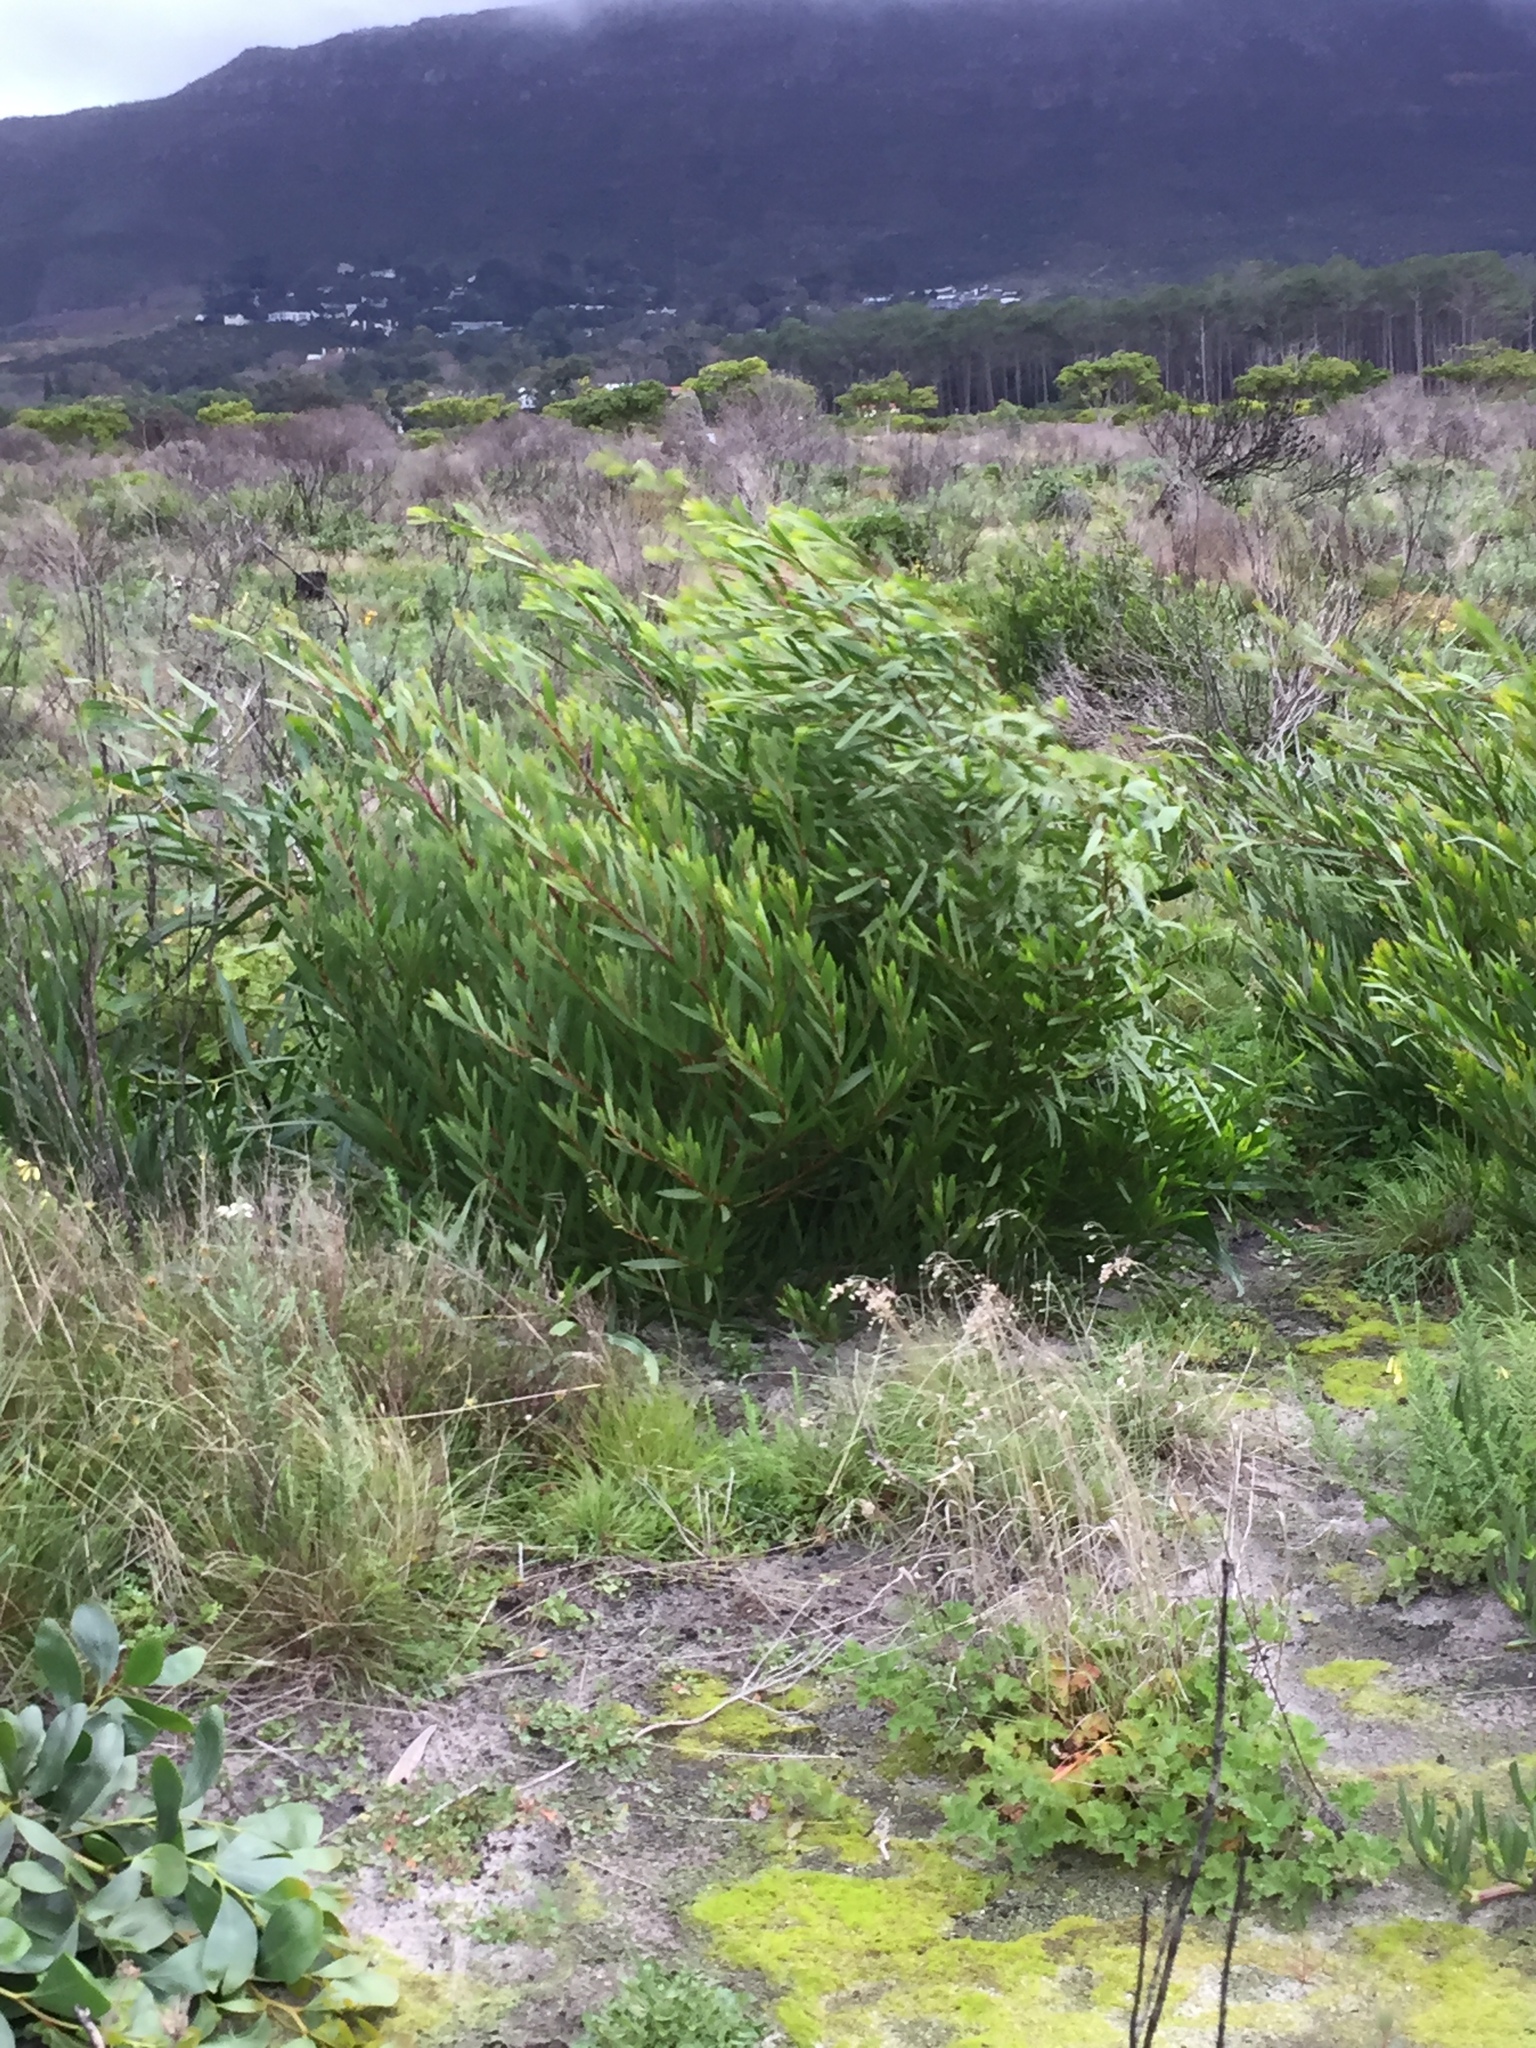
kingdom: Plantae
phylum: Tracheophyta
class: Magnoliopsida
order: Fabales
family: Fabaceae
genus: Acacia
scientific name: Acacia longifolia
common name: Sydney golden wattle
